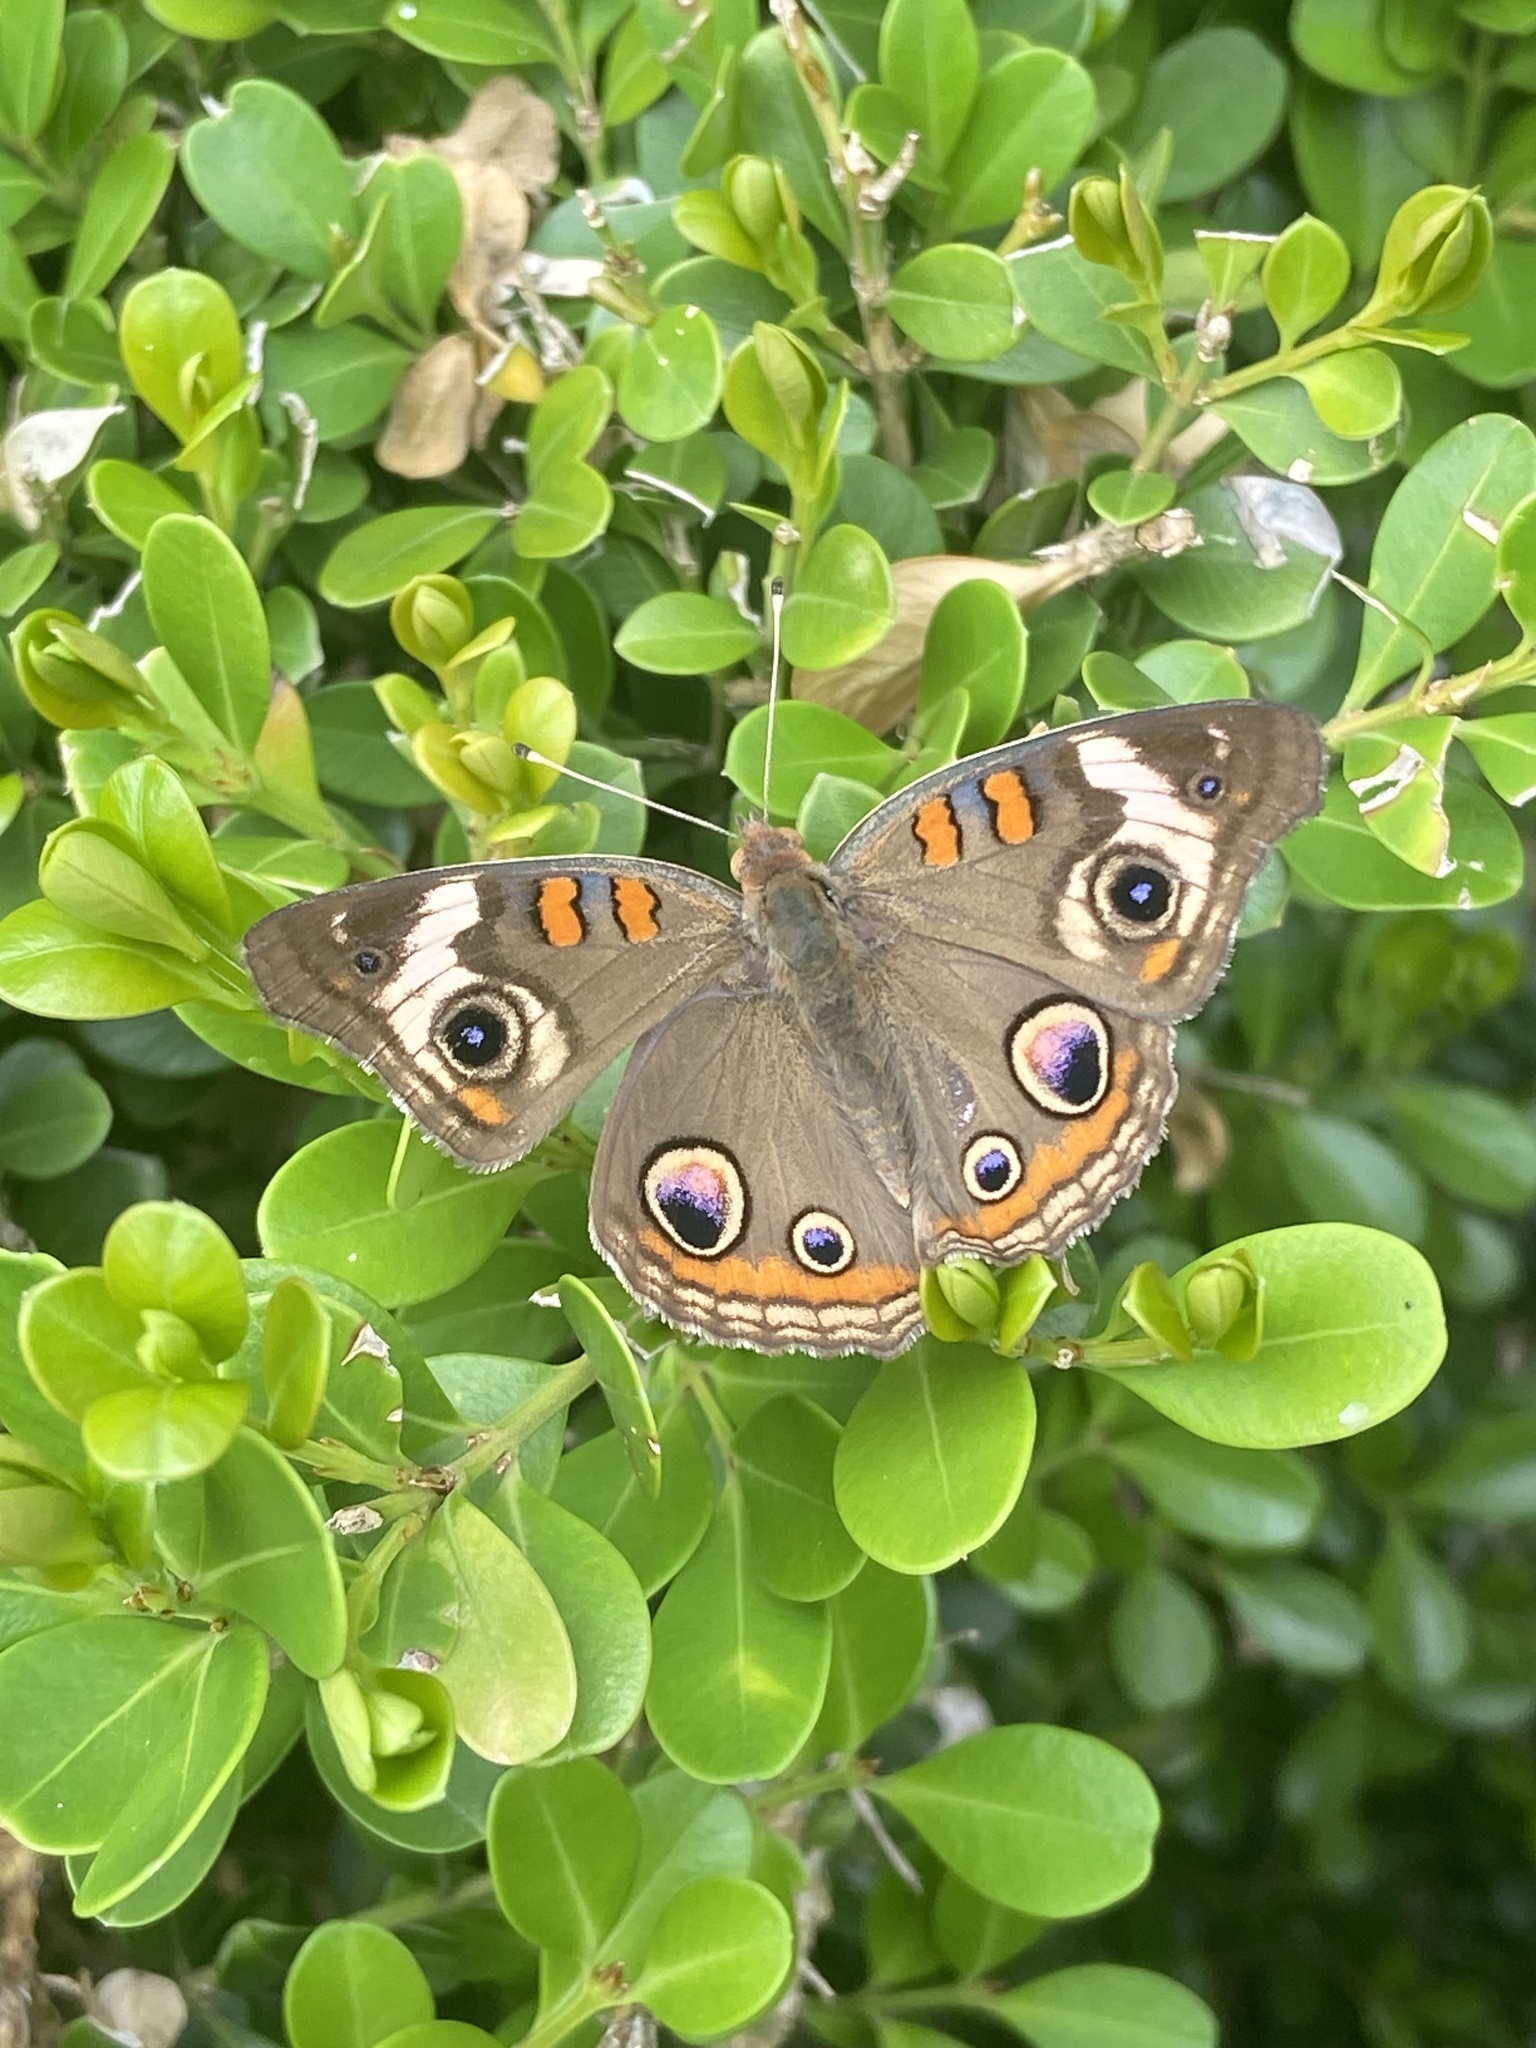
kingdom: Animalia
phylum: Arthropoda
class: Insecta
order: Lepidoptera
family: Nymphalidae
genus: Junonia
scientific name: Junonia coenia
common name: Common buckeye
